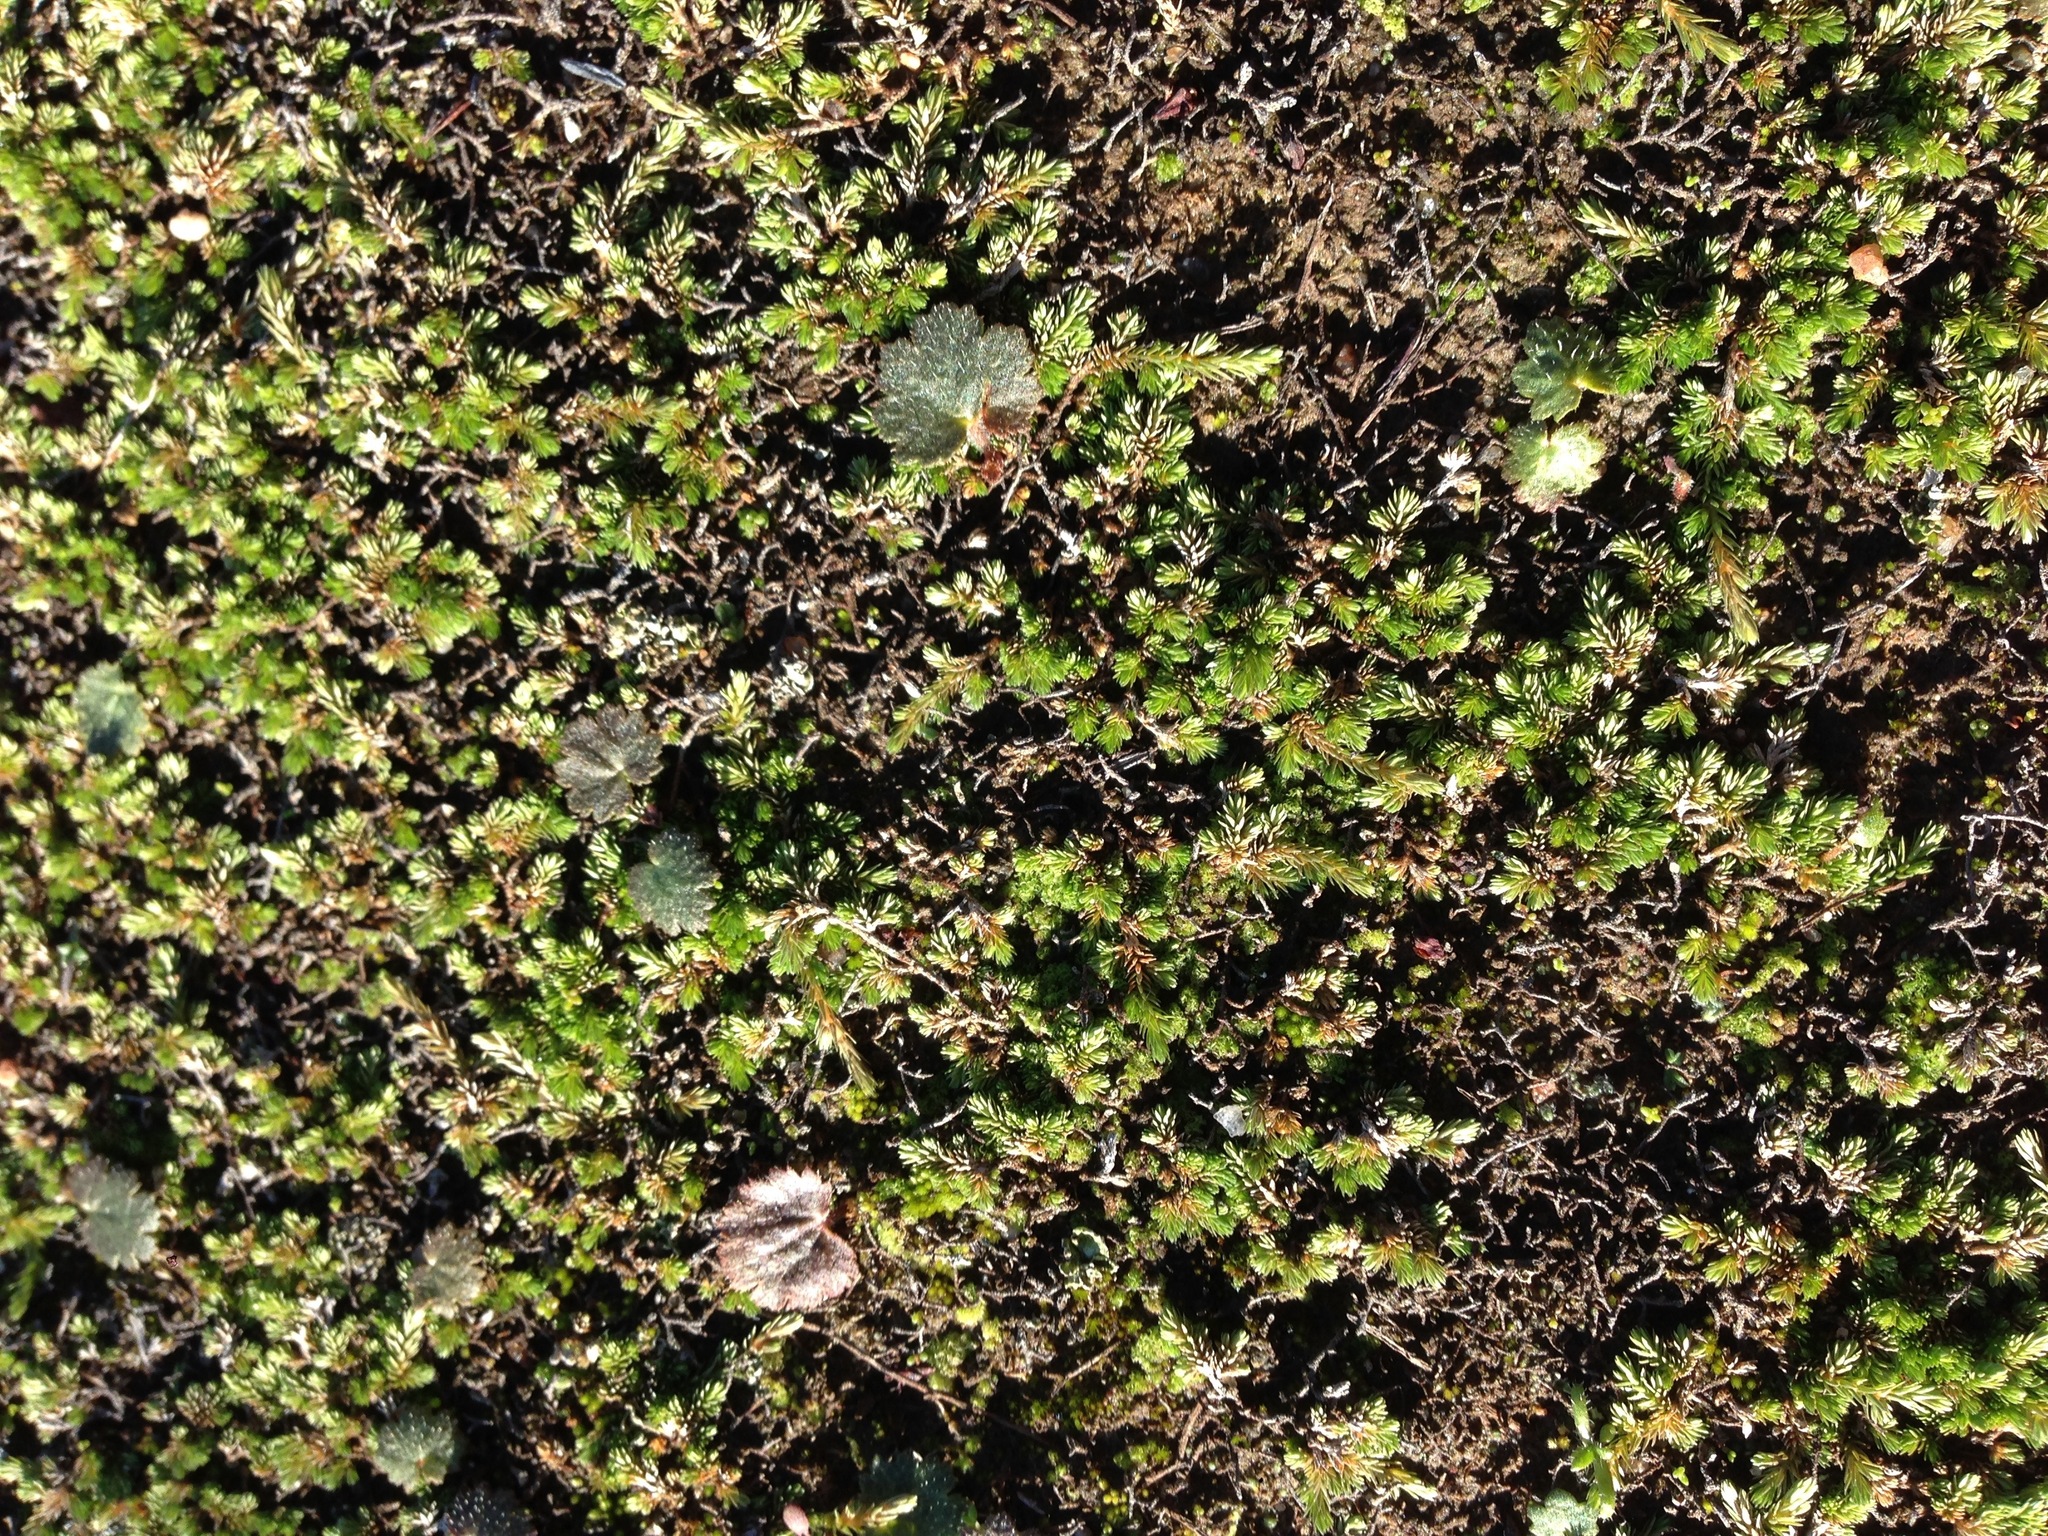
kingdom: Plantae
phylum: Tracheophyta
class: Magnoliopsida
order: Saxifragales
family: Saxifragaceae
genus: Jepsonia
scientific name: Jepsonia parryi
